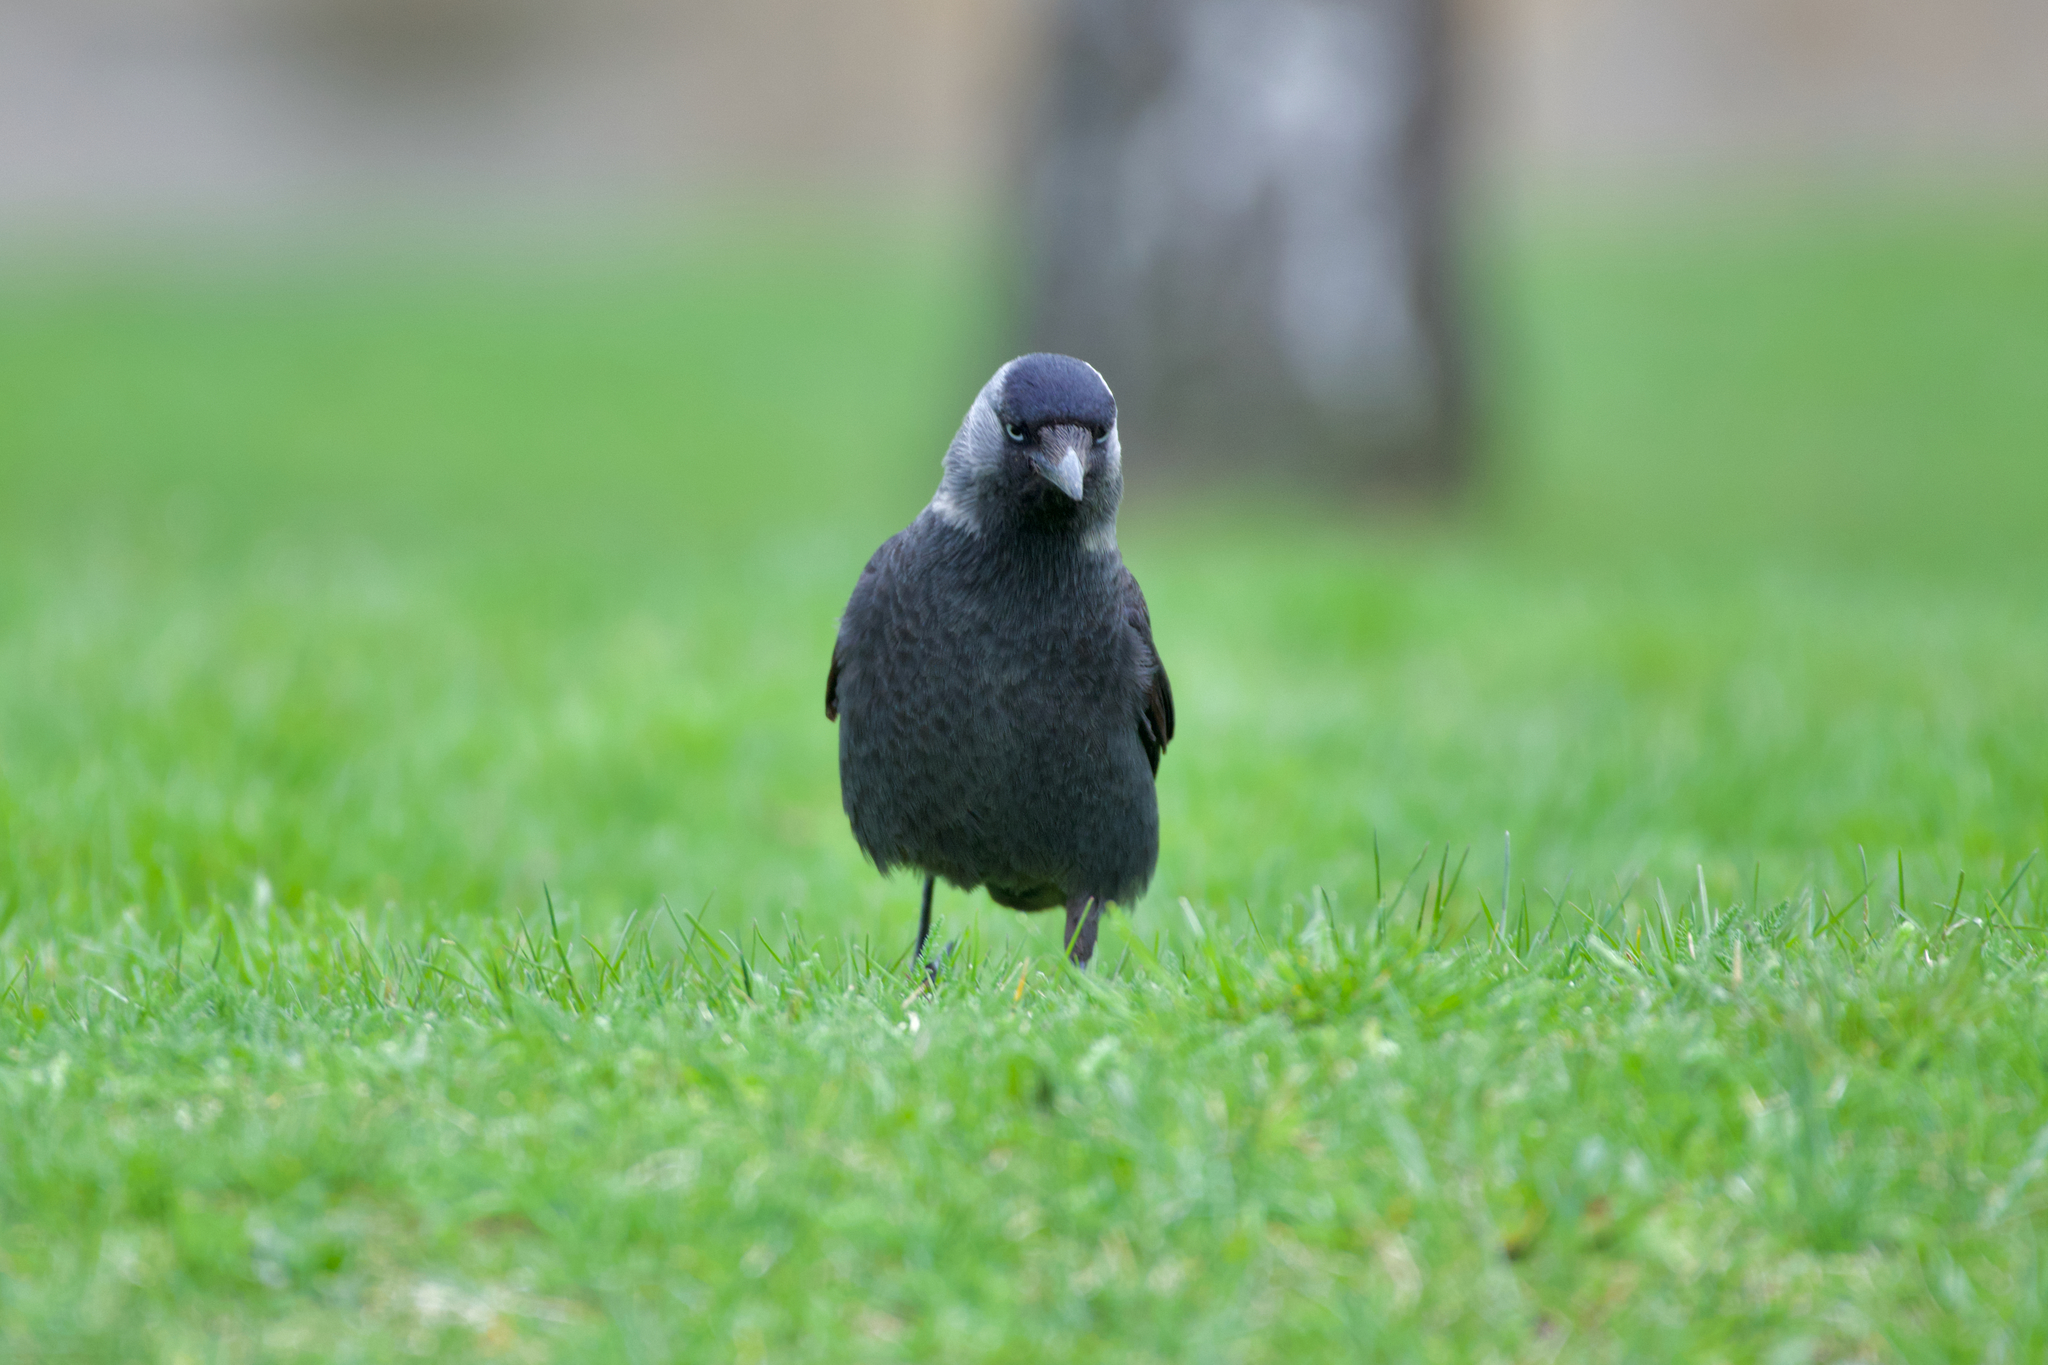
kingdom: Animalia
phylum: Chordata
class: Aves
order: Passeriformes
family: Corvidae
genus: Coloeus
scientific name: Coloeus monedula
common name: Western jackdaw
